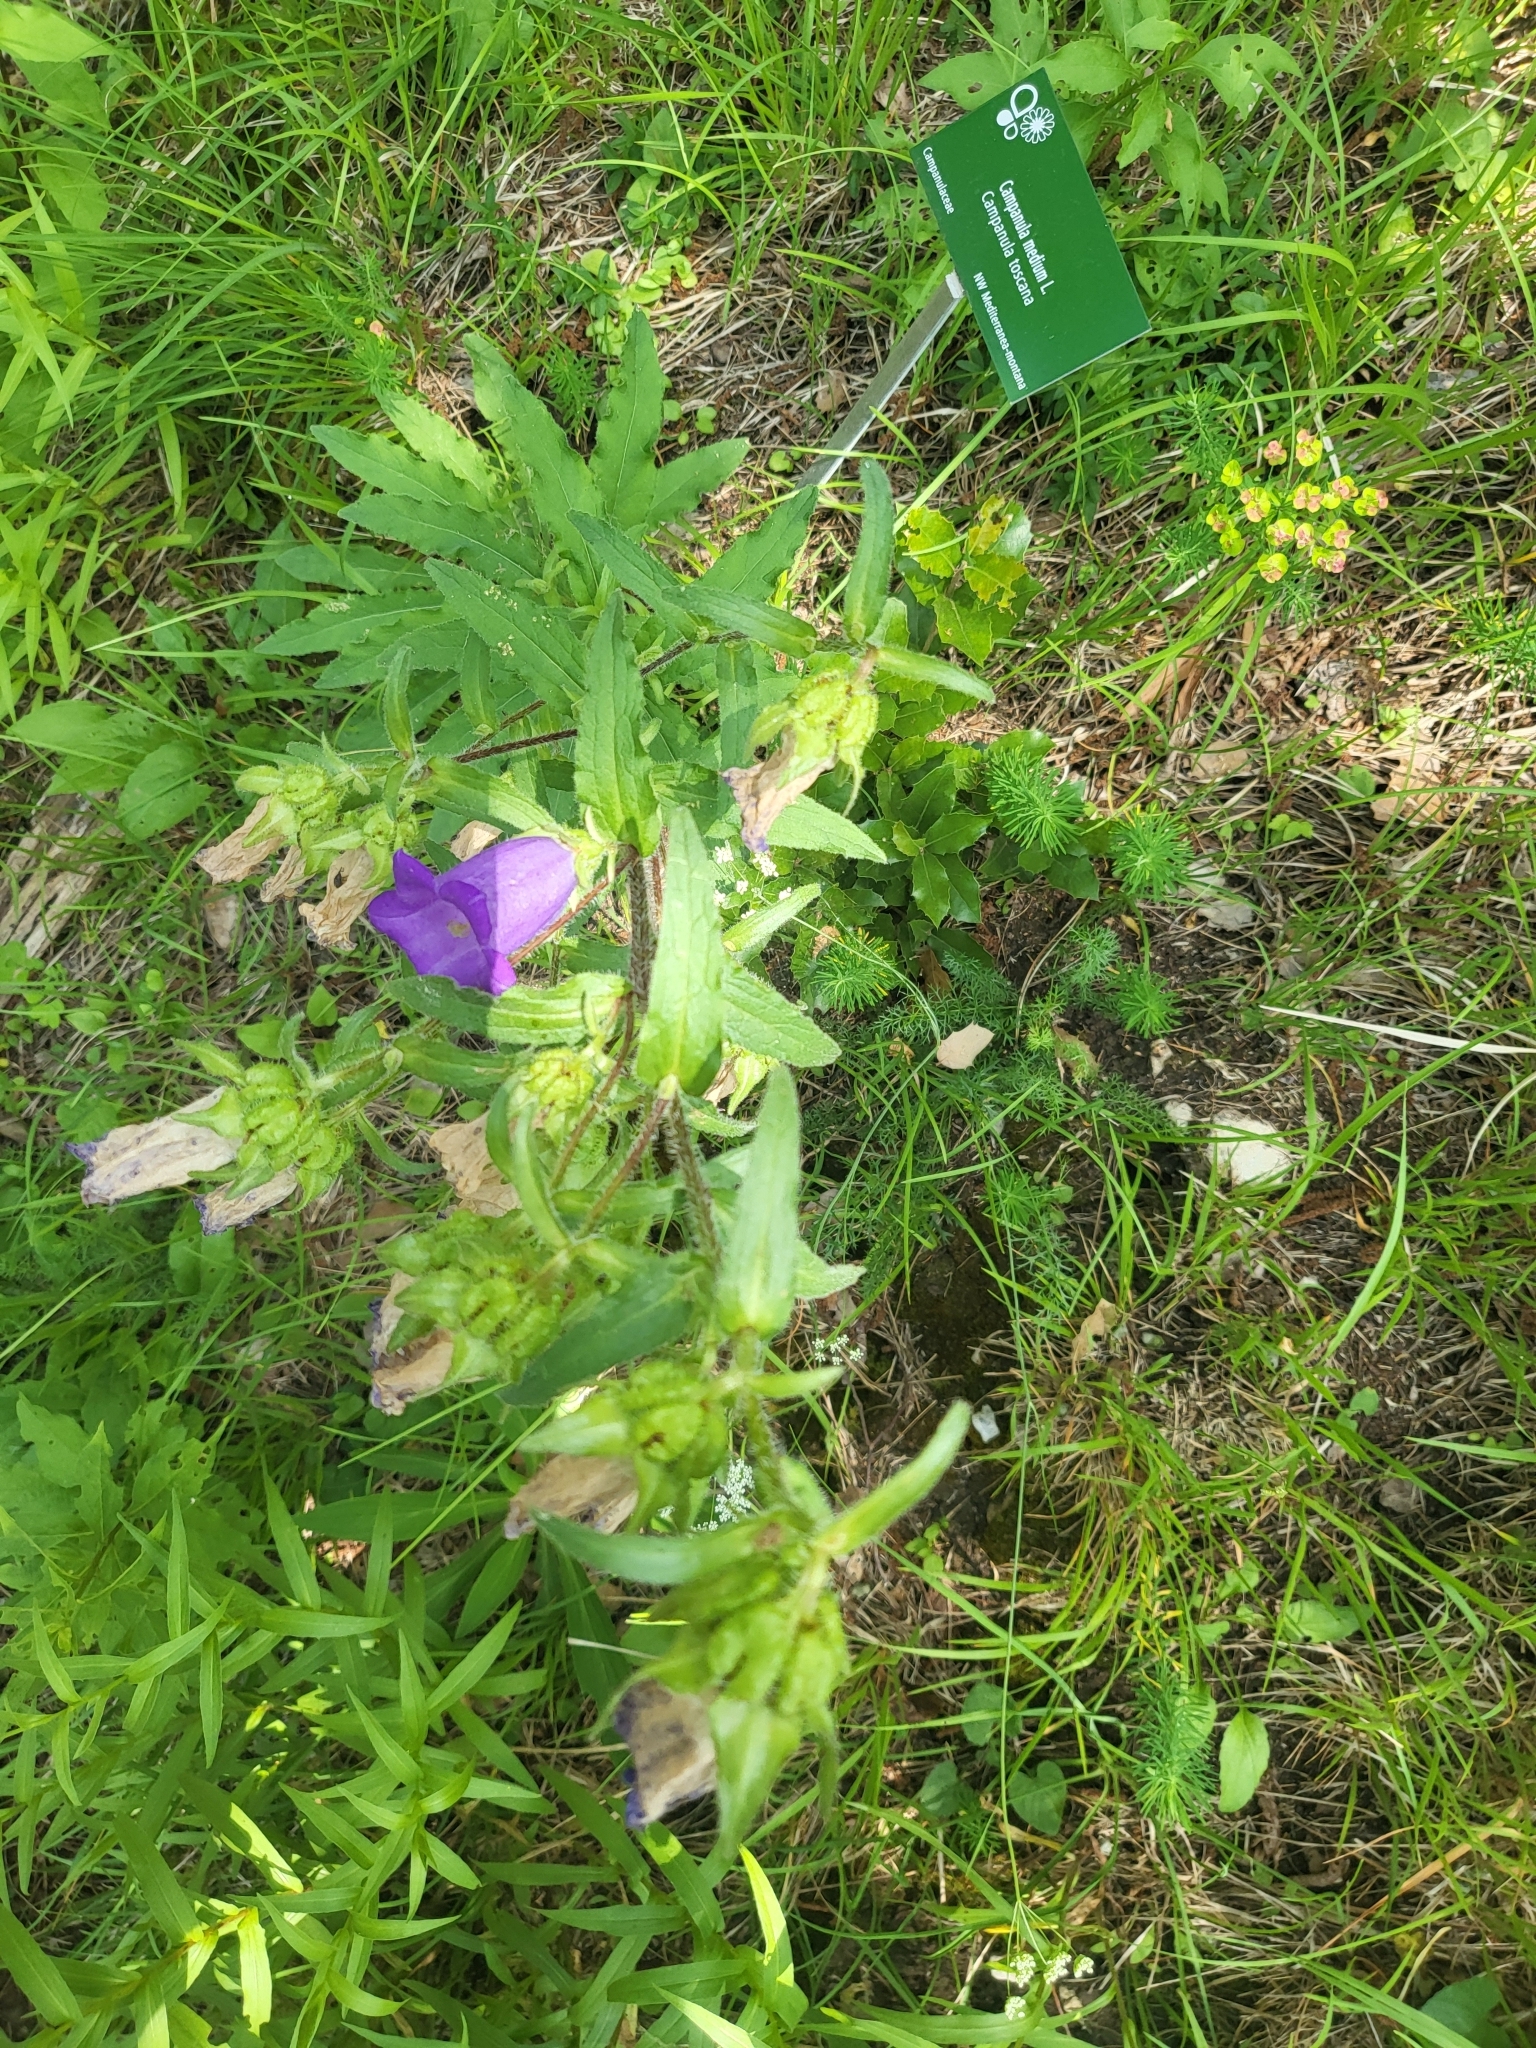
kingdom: Plantae
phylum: Tracheophyta
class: Magnoliopsida
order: Asterales
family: Campanulaceae
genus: Campanula
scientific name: Campanula medium
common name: Canterbury bells
